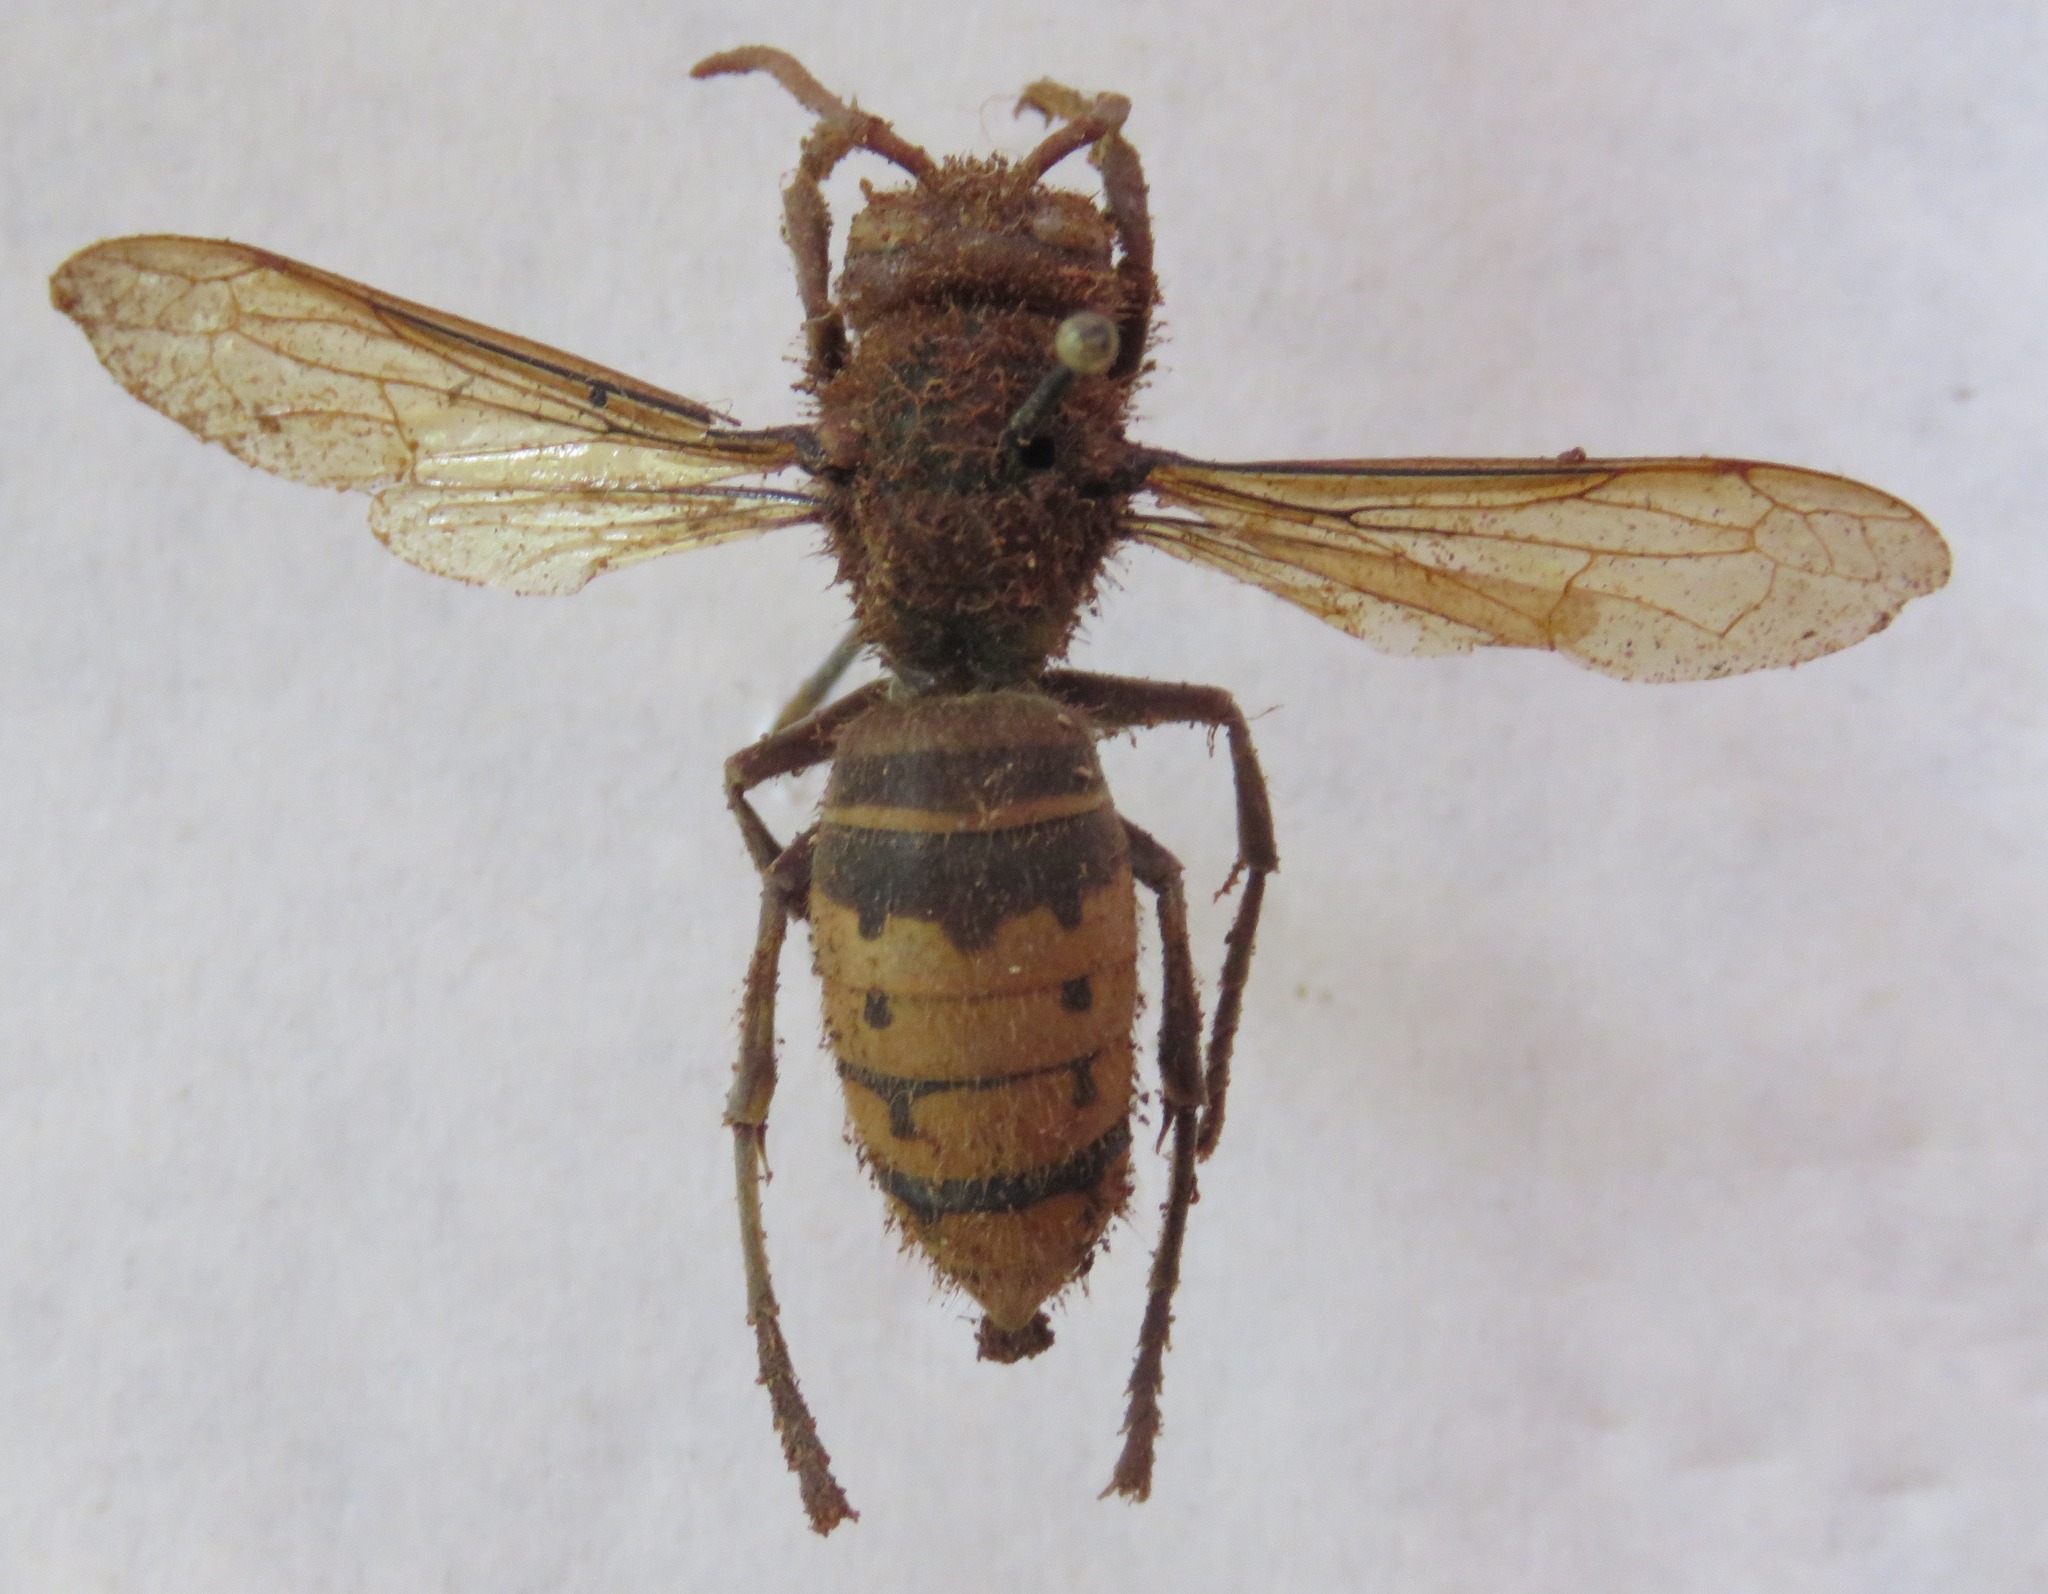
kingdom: Animalia
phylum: Arthropoda
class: Insecta
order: Hymenoptera
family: Vespidae
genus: Vespa
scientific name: Vespa crabro
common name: Hornet
